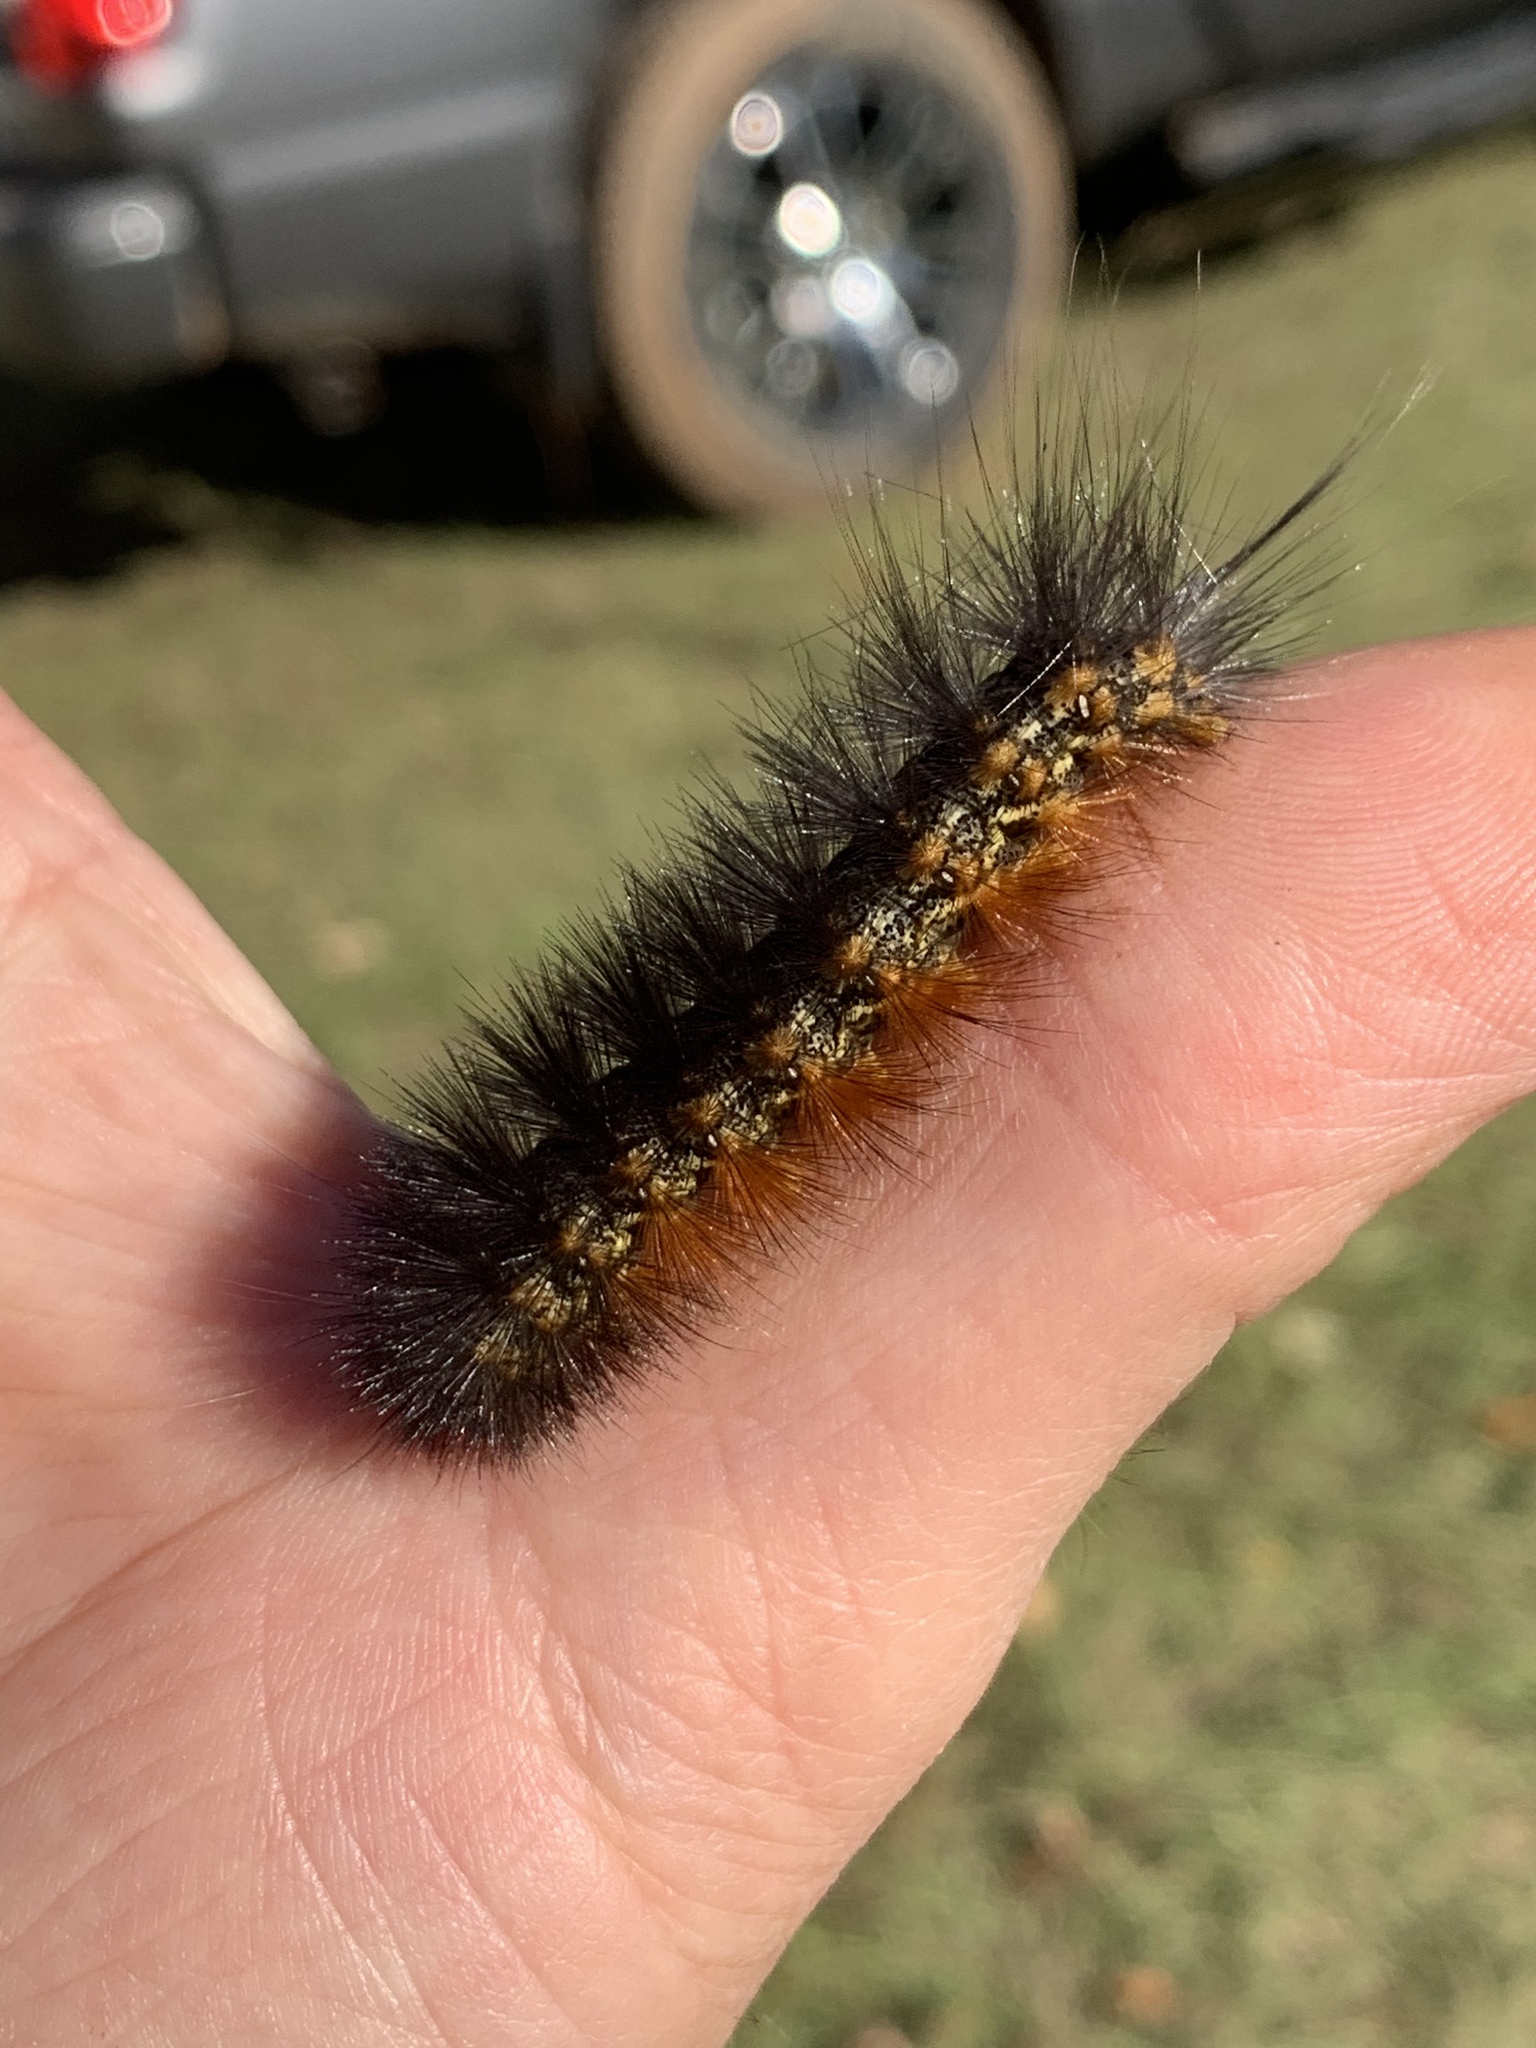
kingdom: Animalia
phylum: Arthropoda
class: Insecta
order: Lepidoptera
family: Erebidae
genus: Estigmene
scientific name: Estigmene acrea
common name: Salt marsh moth
